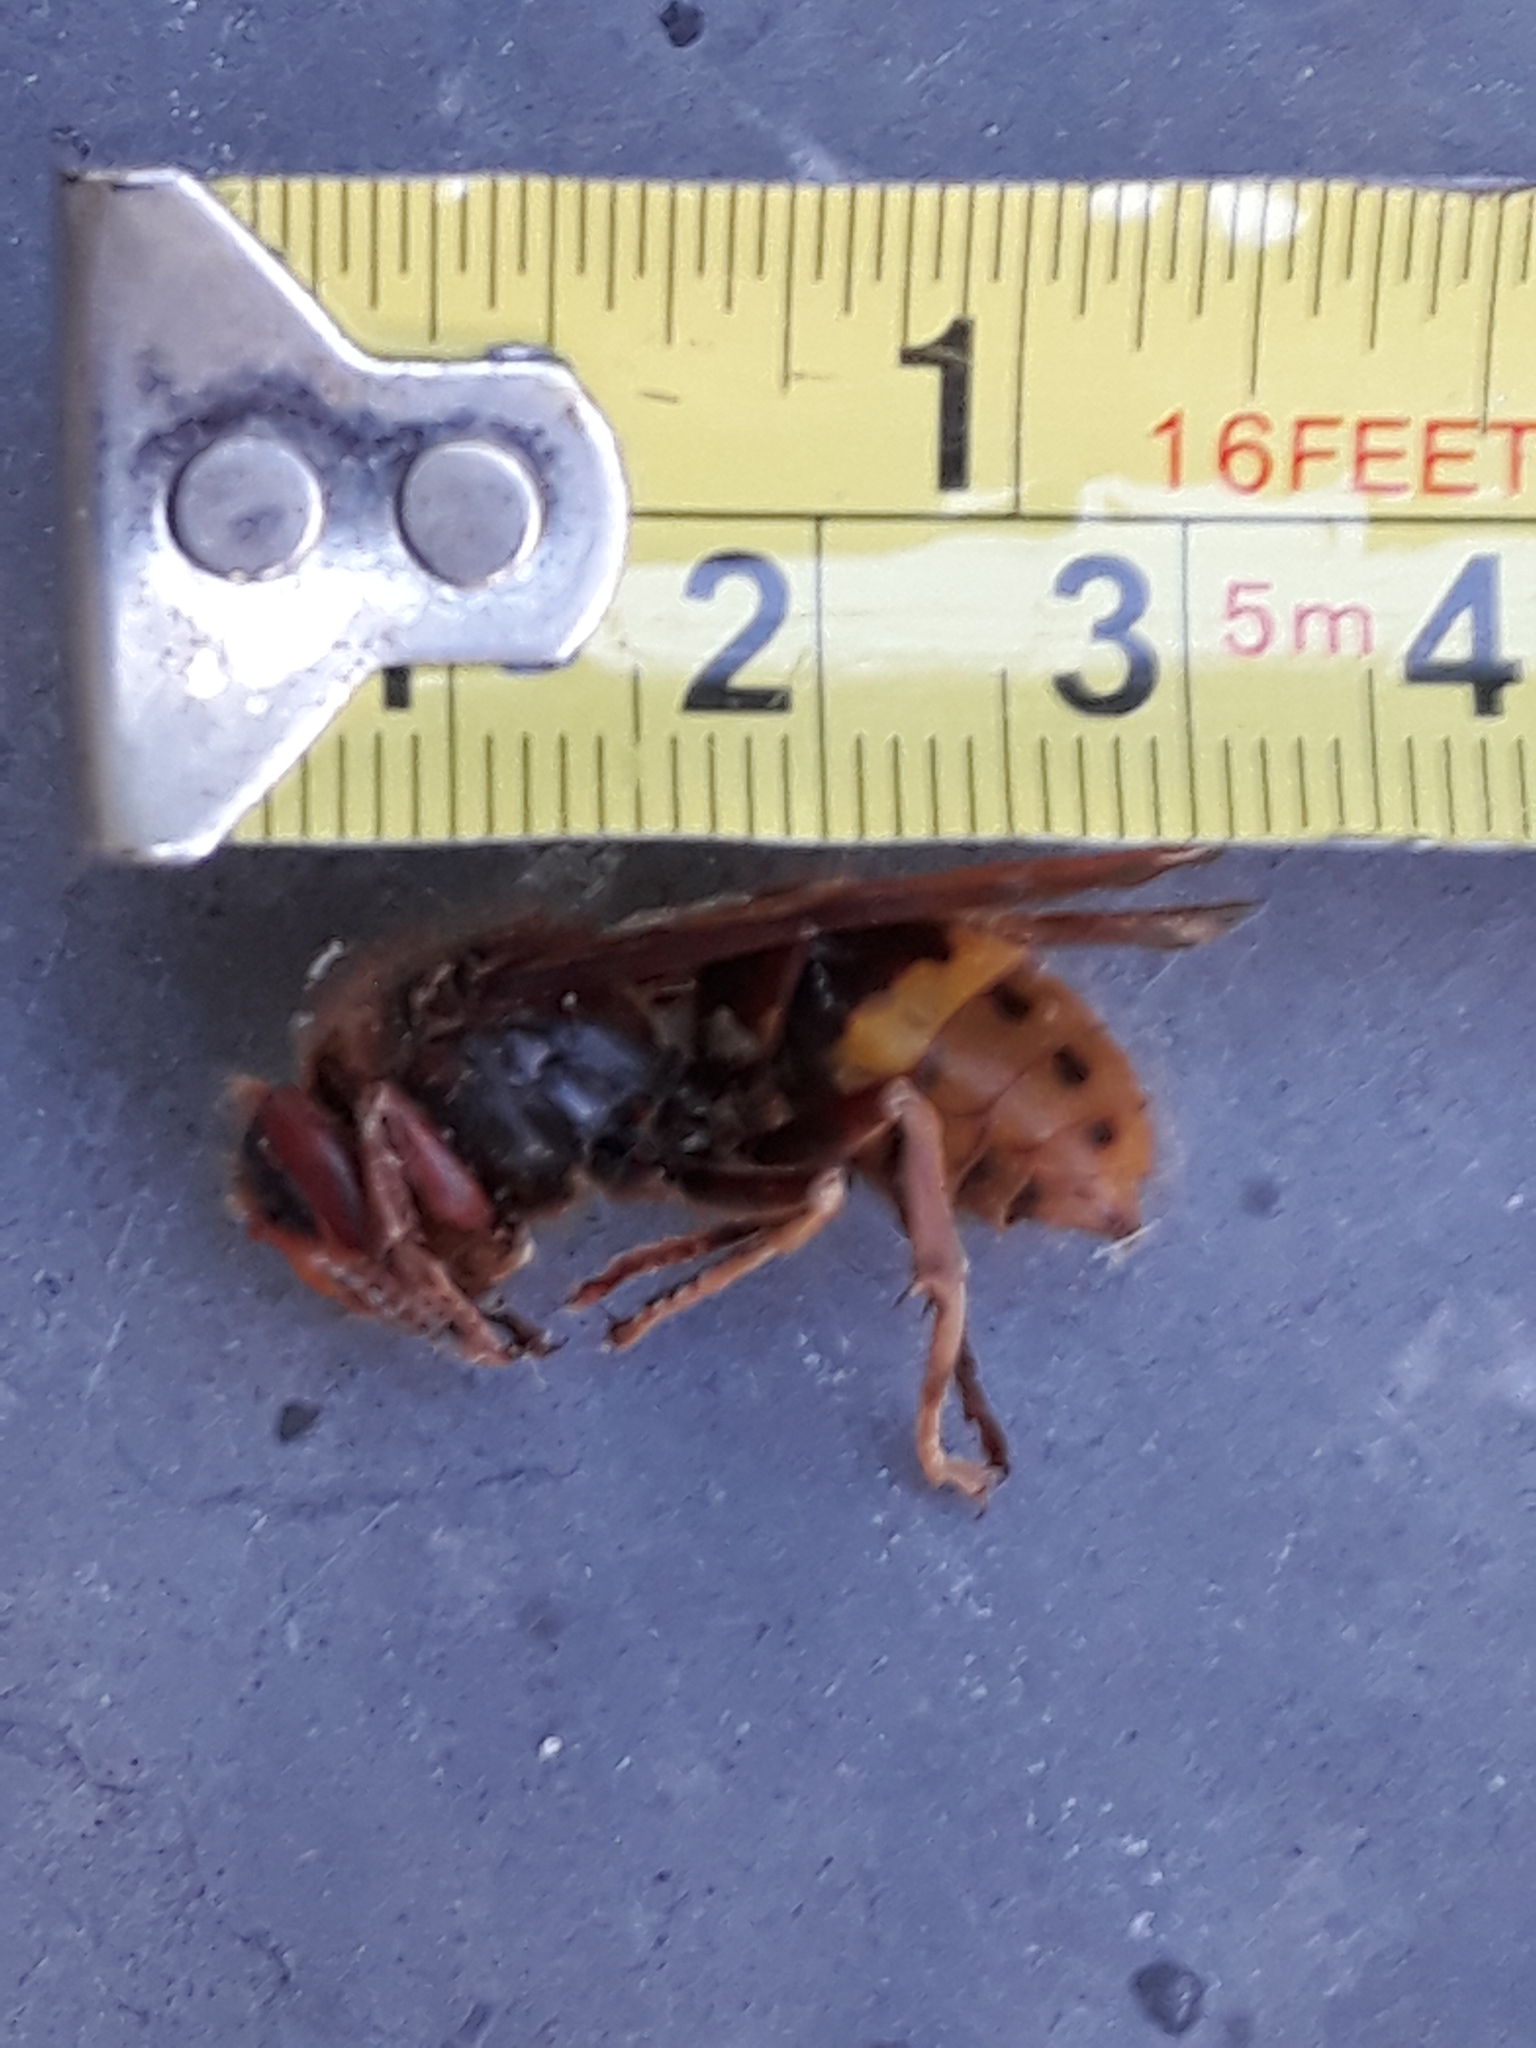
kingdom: Animalia
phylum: Arthropoda
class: Insecta
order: Hymenoptera
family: Vespidae
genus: Vespa
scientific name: Vespa crabro
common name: Hornet
